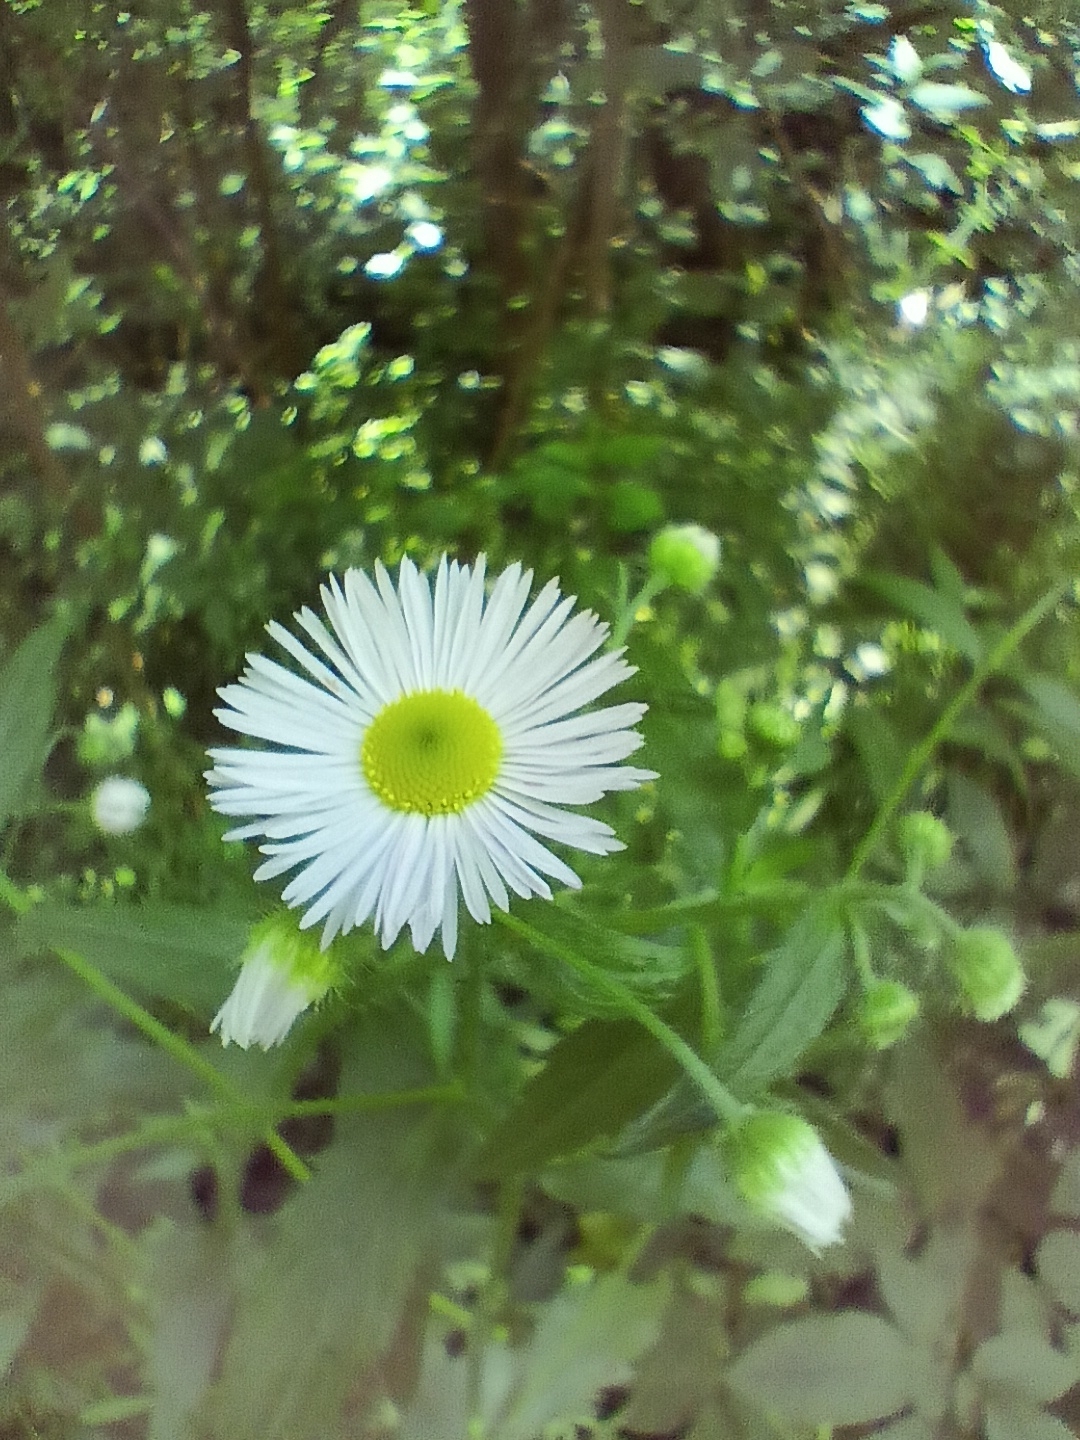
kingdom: Plantae
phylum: Tracheophyta
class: Magnoliopsida
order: Asterales
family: Asteraceae
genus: Erigeron
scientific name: Erigeron annuus
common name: Tall fleabane
